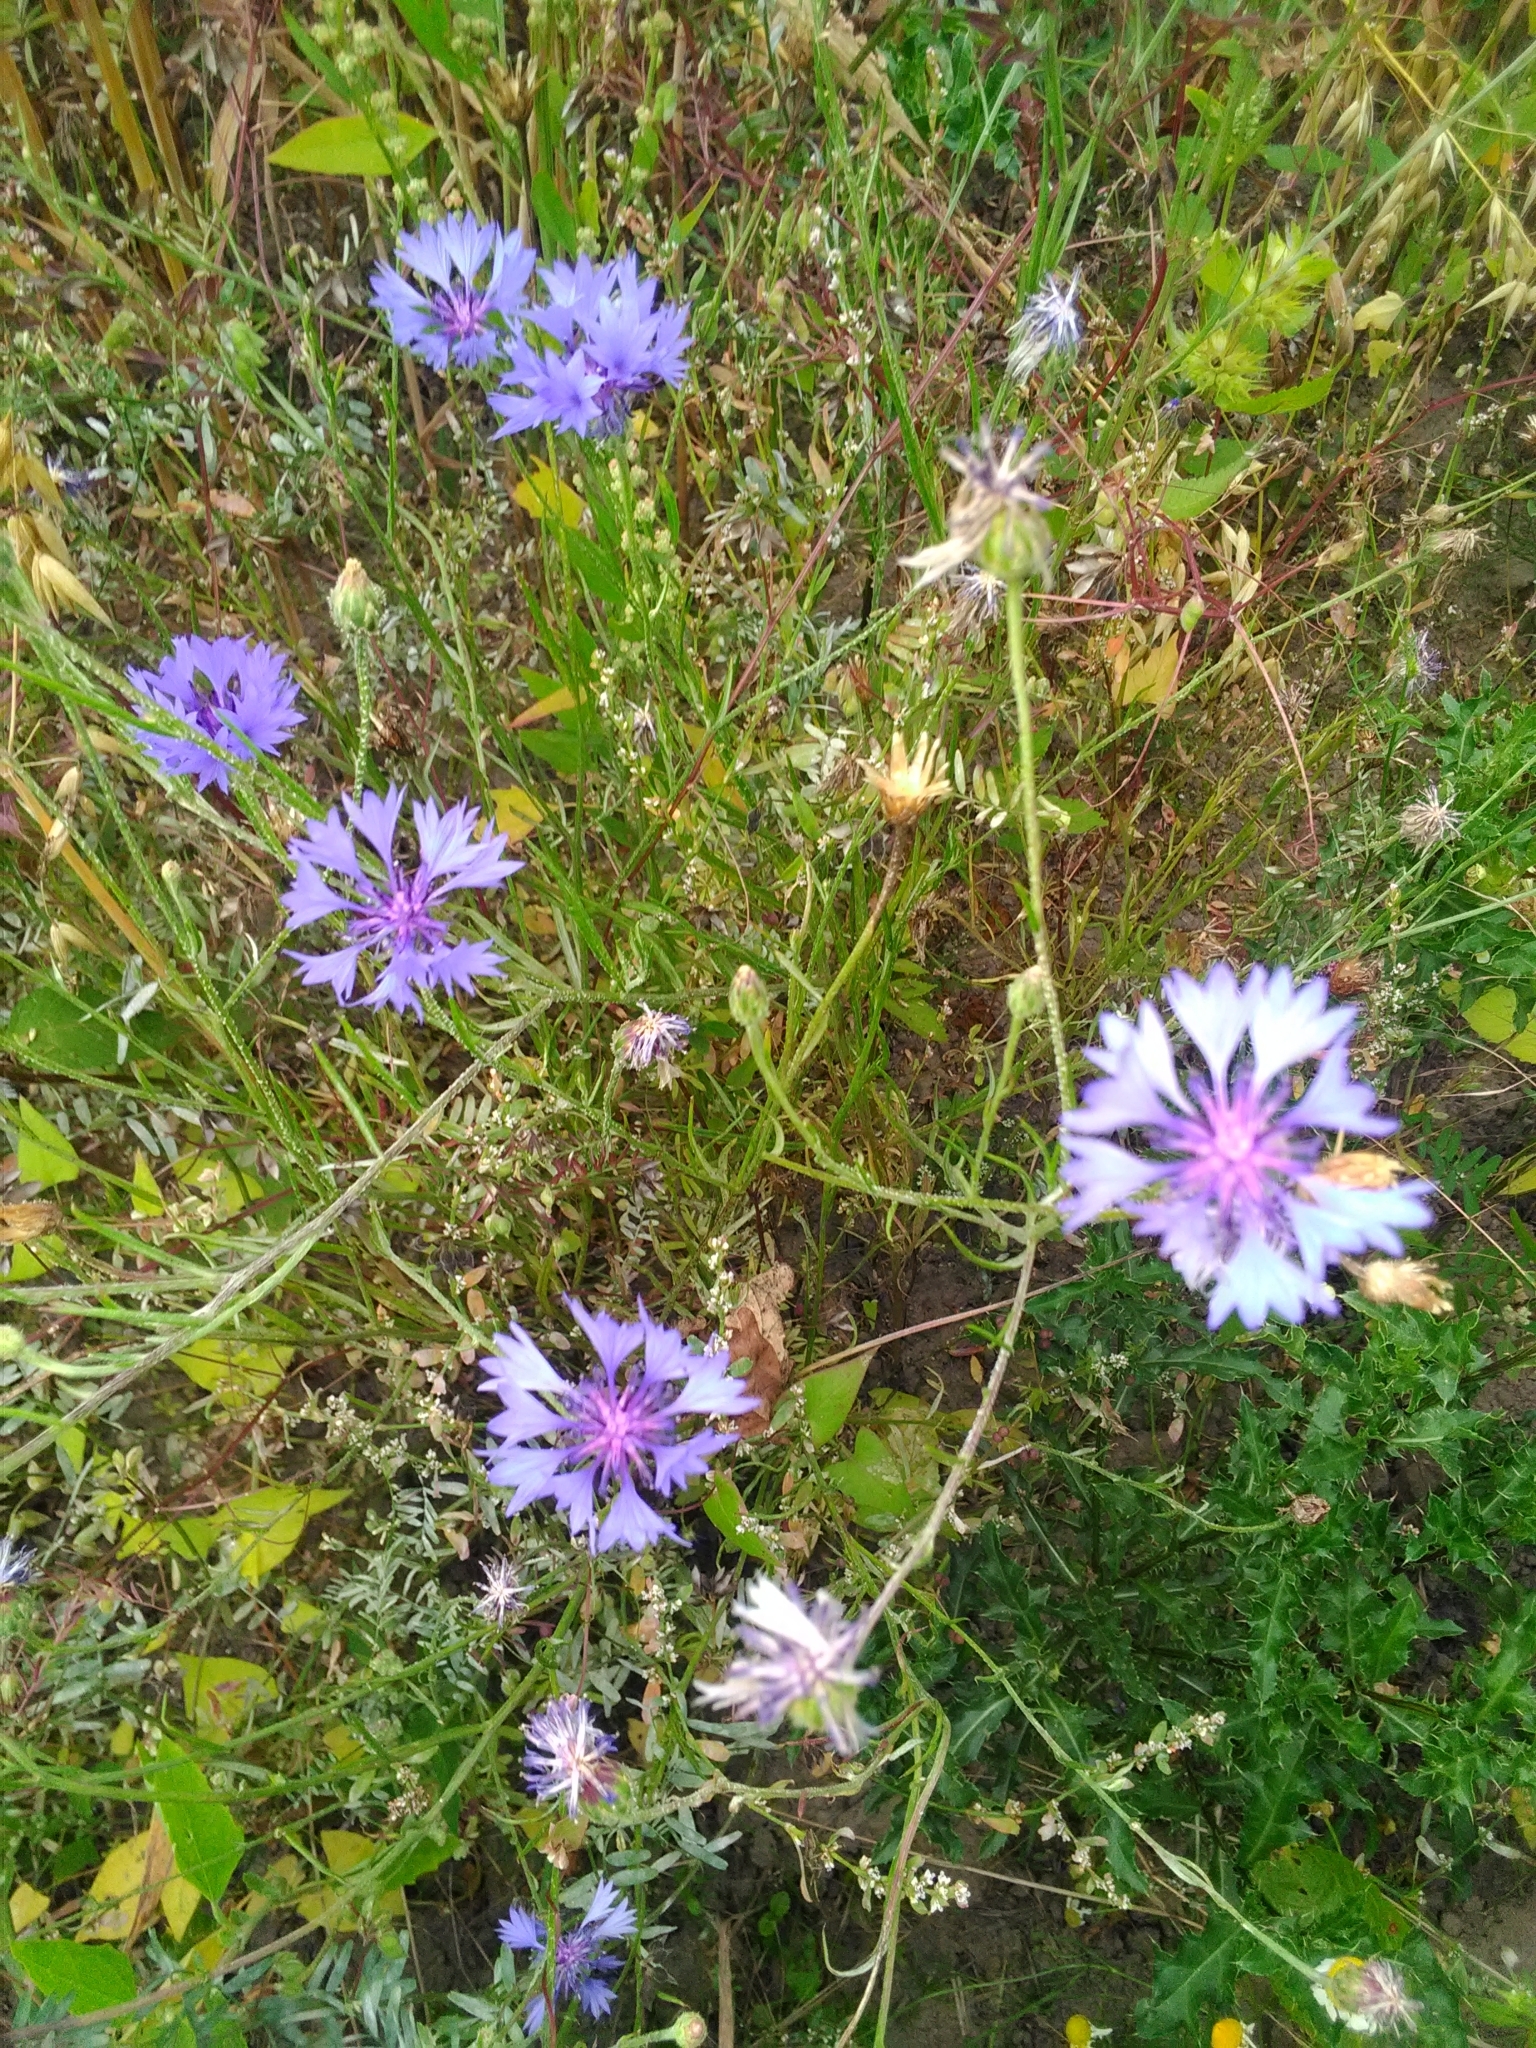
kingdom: Plantae
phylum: Tracheophyta
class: Magnoliopsida
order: Asterales
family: Asteraceae
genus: Centaurea
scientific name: Centaurea cyanus
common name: Cornflower
